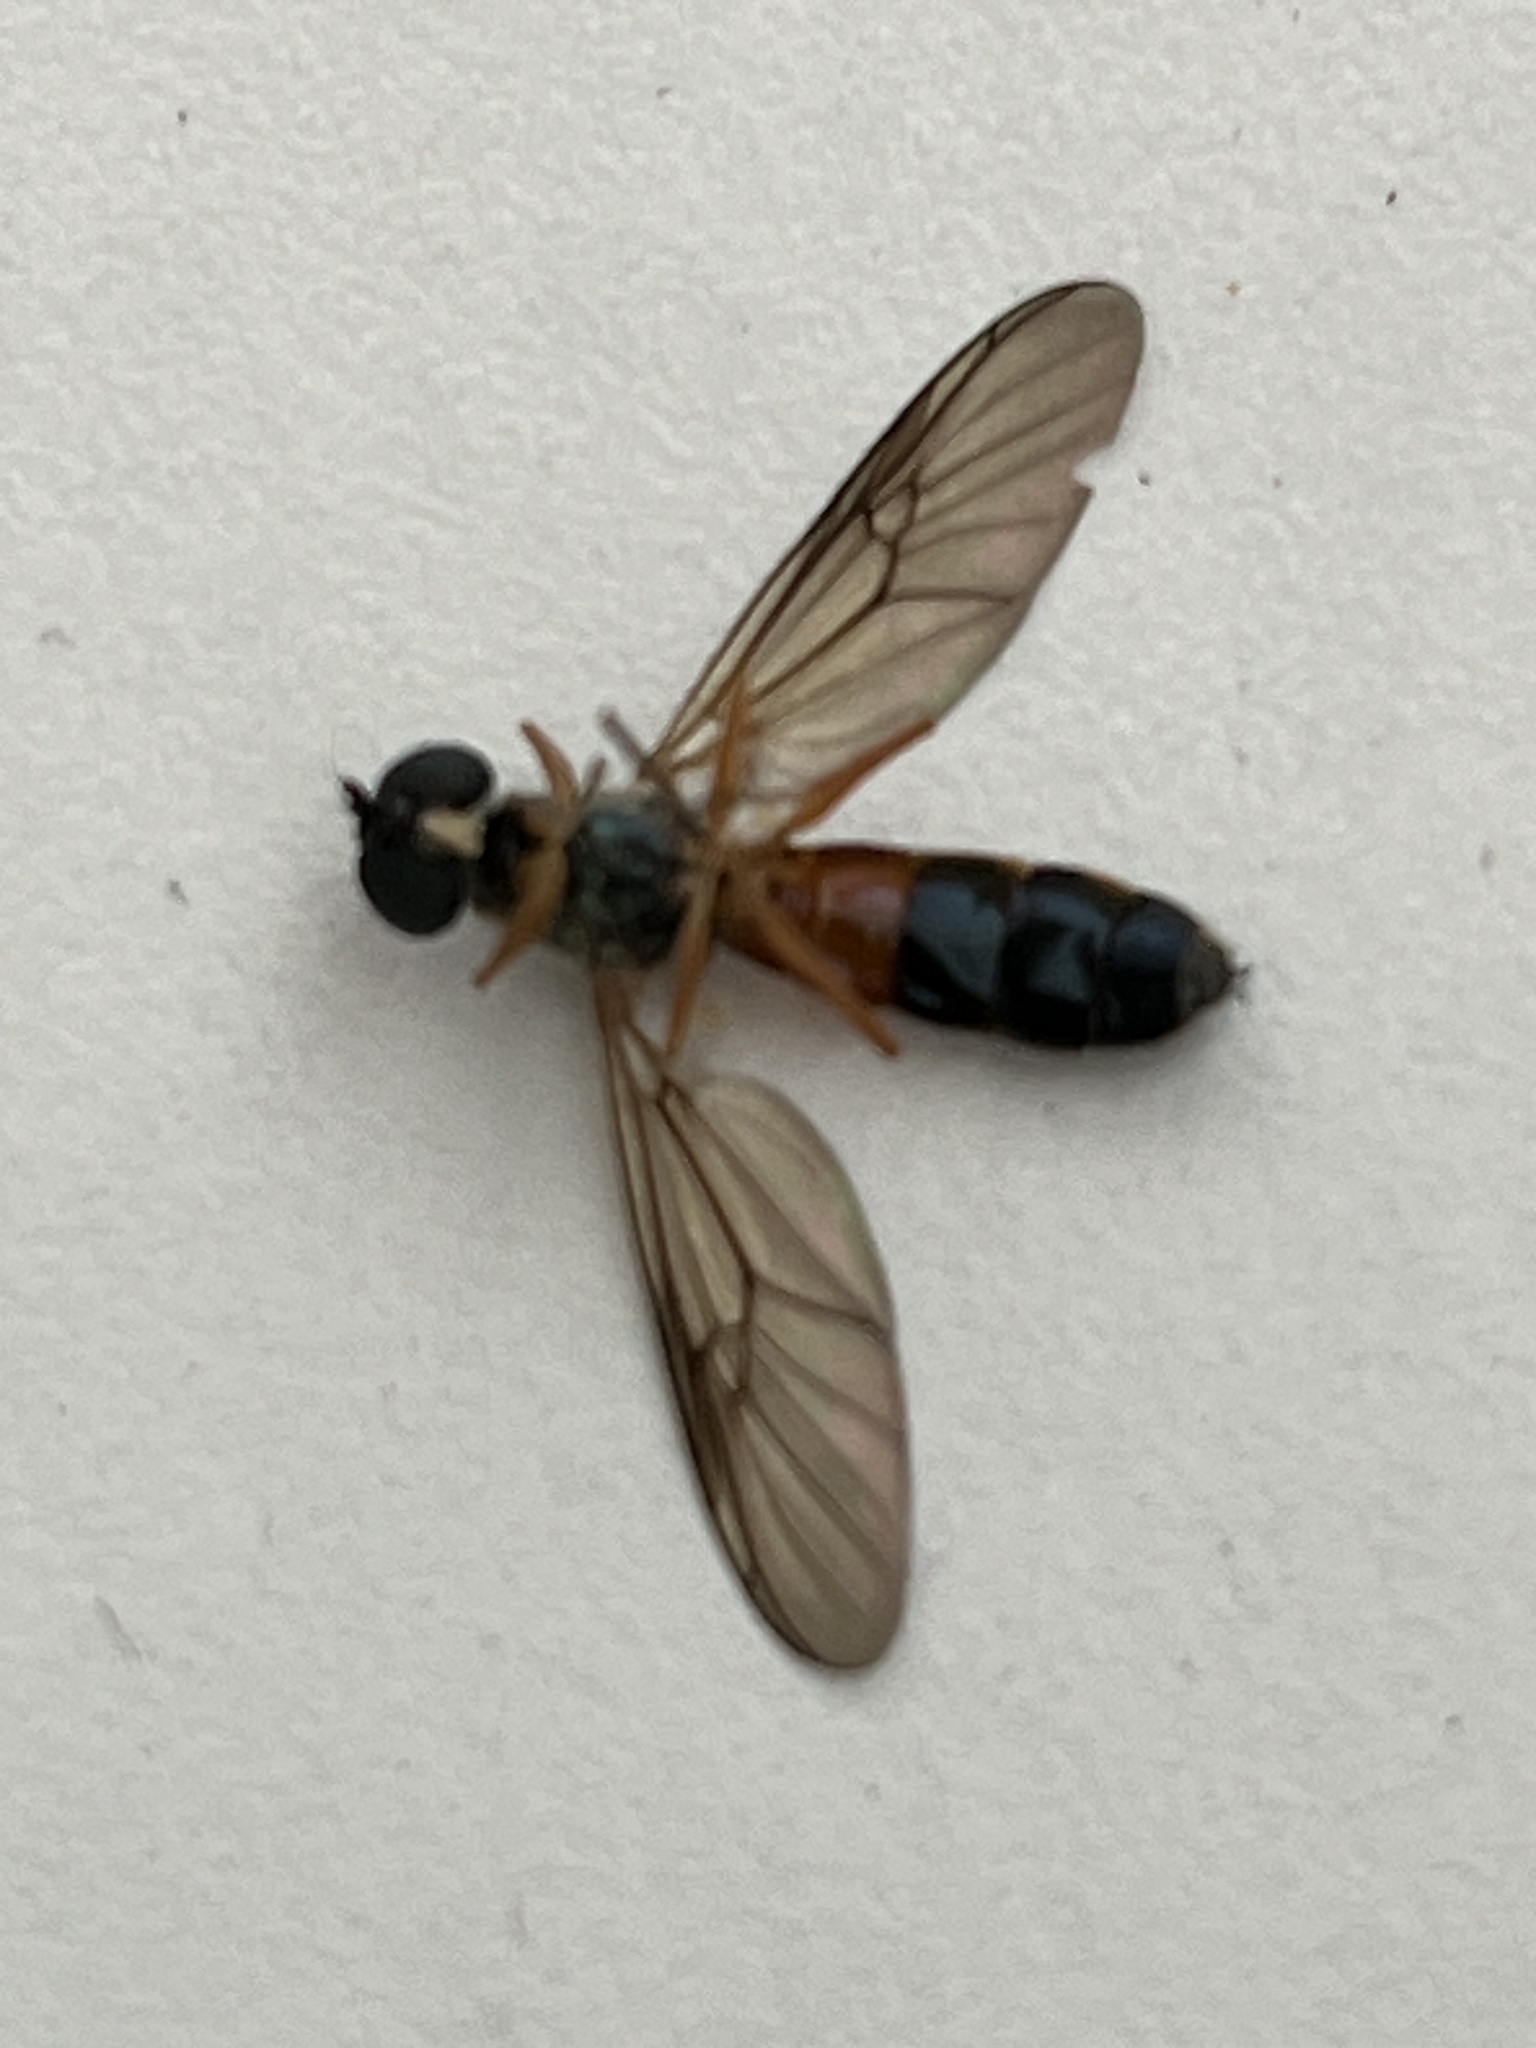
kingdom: Animalia
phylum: Arthropoda
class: Insecta
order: Diptera
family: Stratiomyidae
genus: Sargus
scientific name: Sargus bipunctatus
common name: Twin-spot centurion
